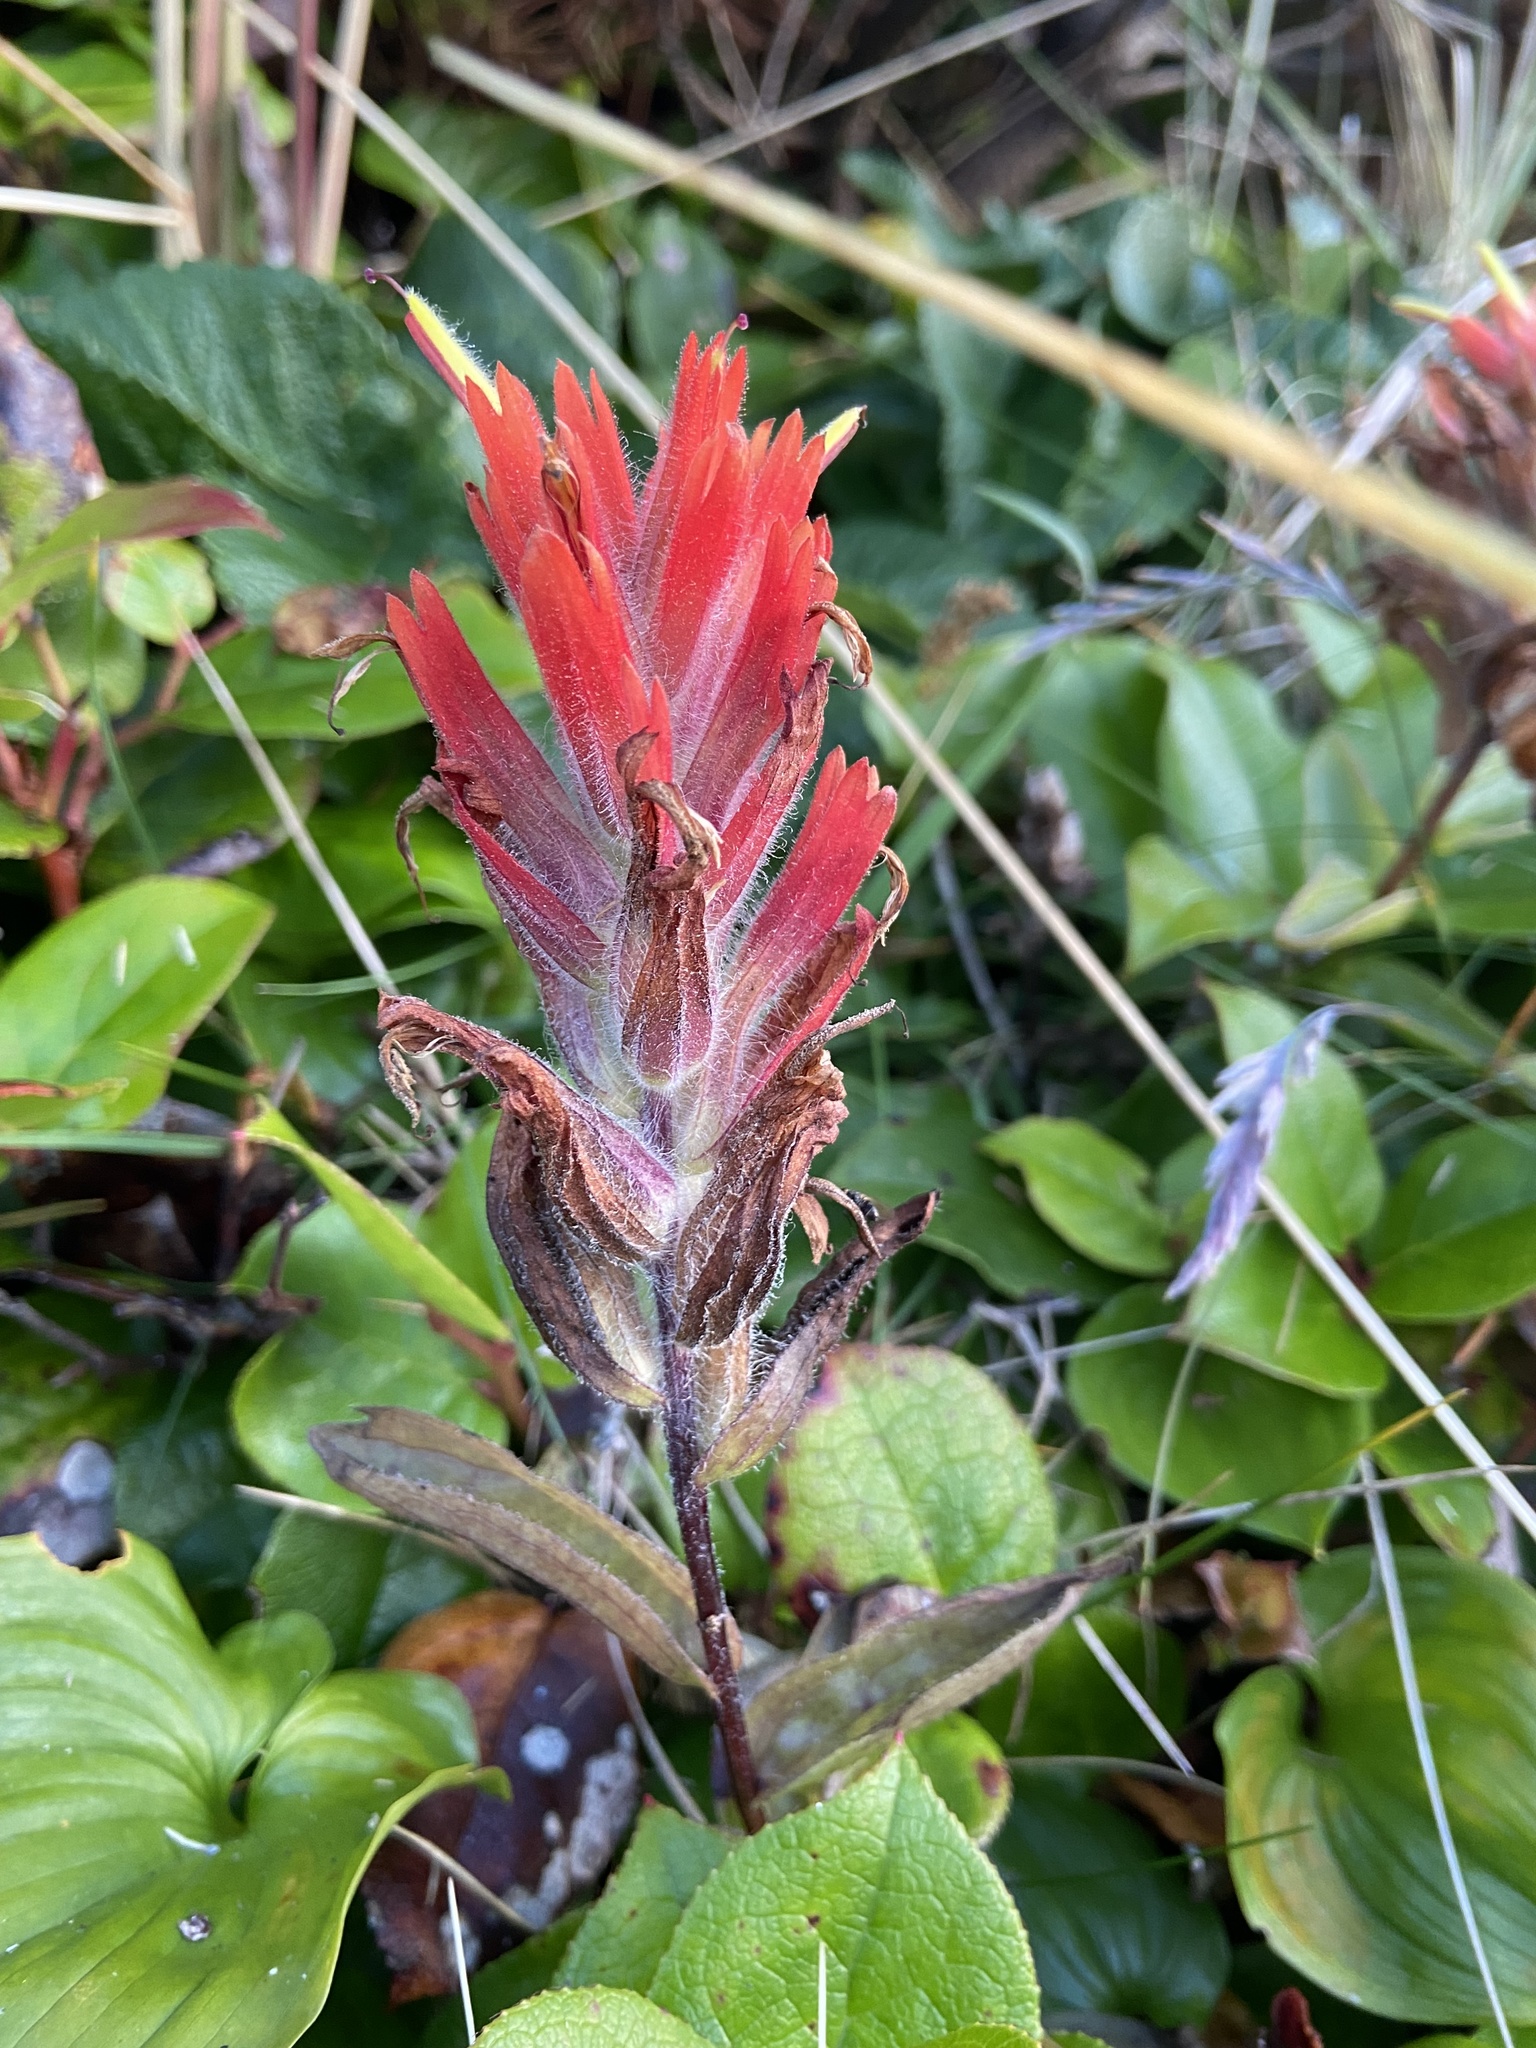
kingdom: Plantae
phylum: Tracheophyta
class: Magnoliopsida
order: Lamiales
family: Orobanchaceae
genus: Castilleja
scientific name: Castilleja litoralis
